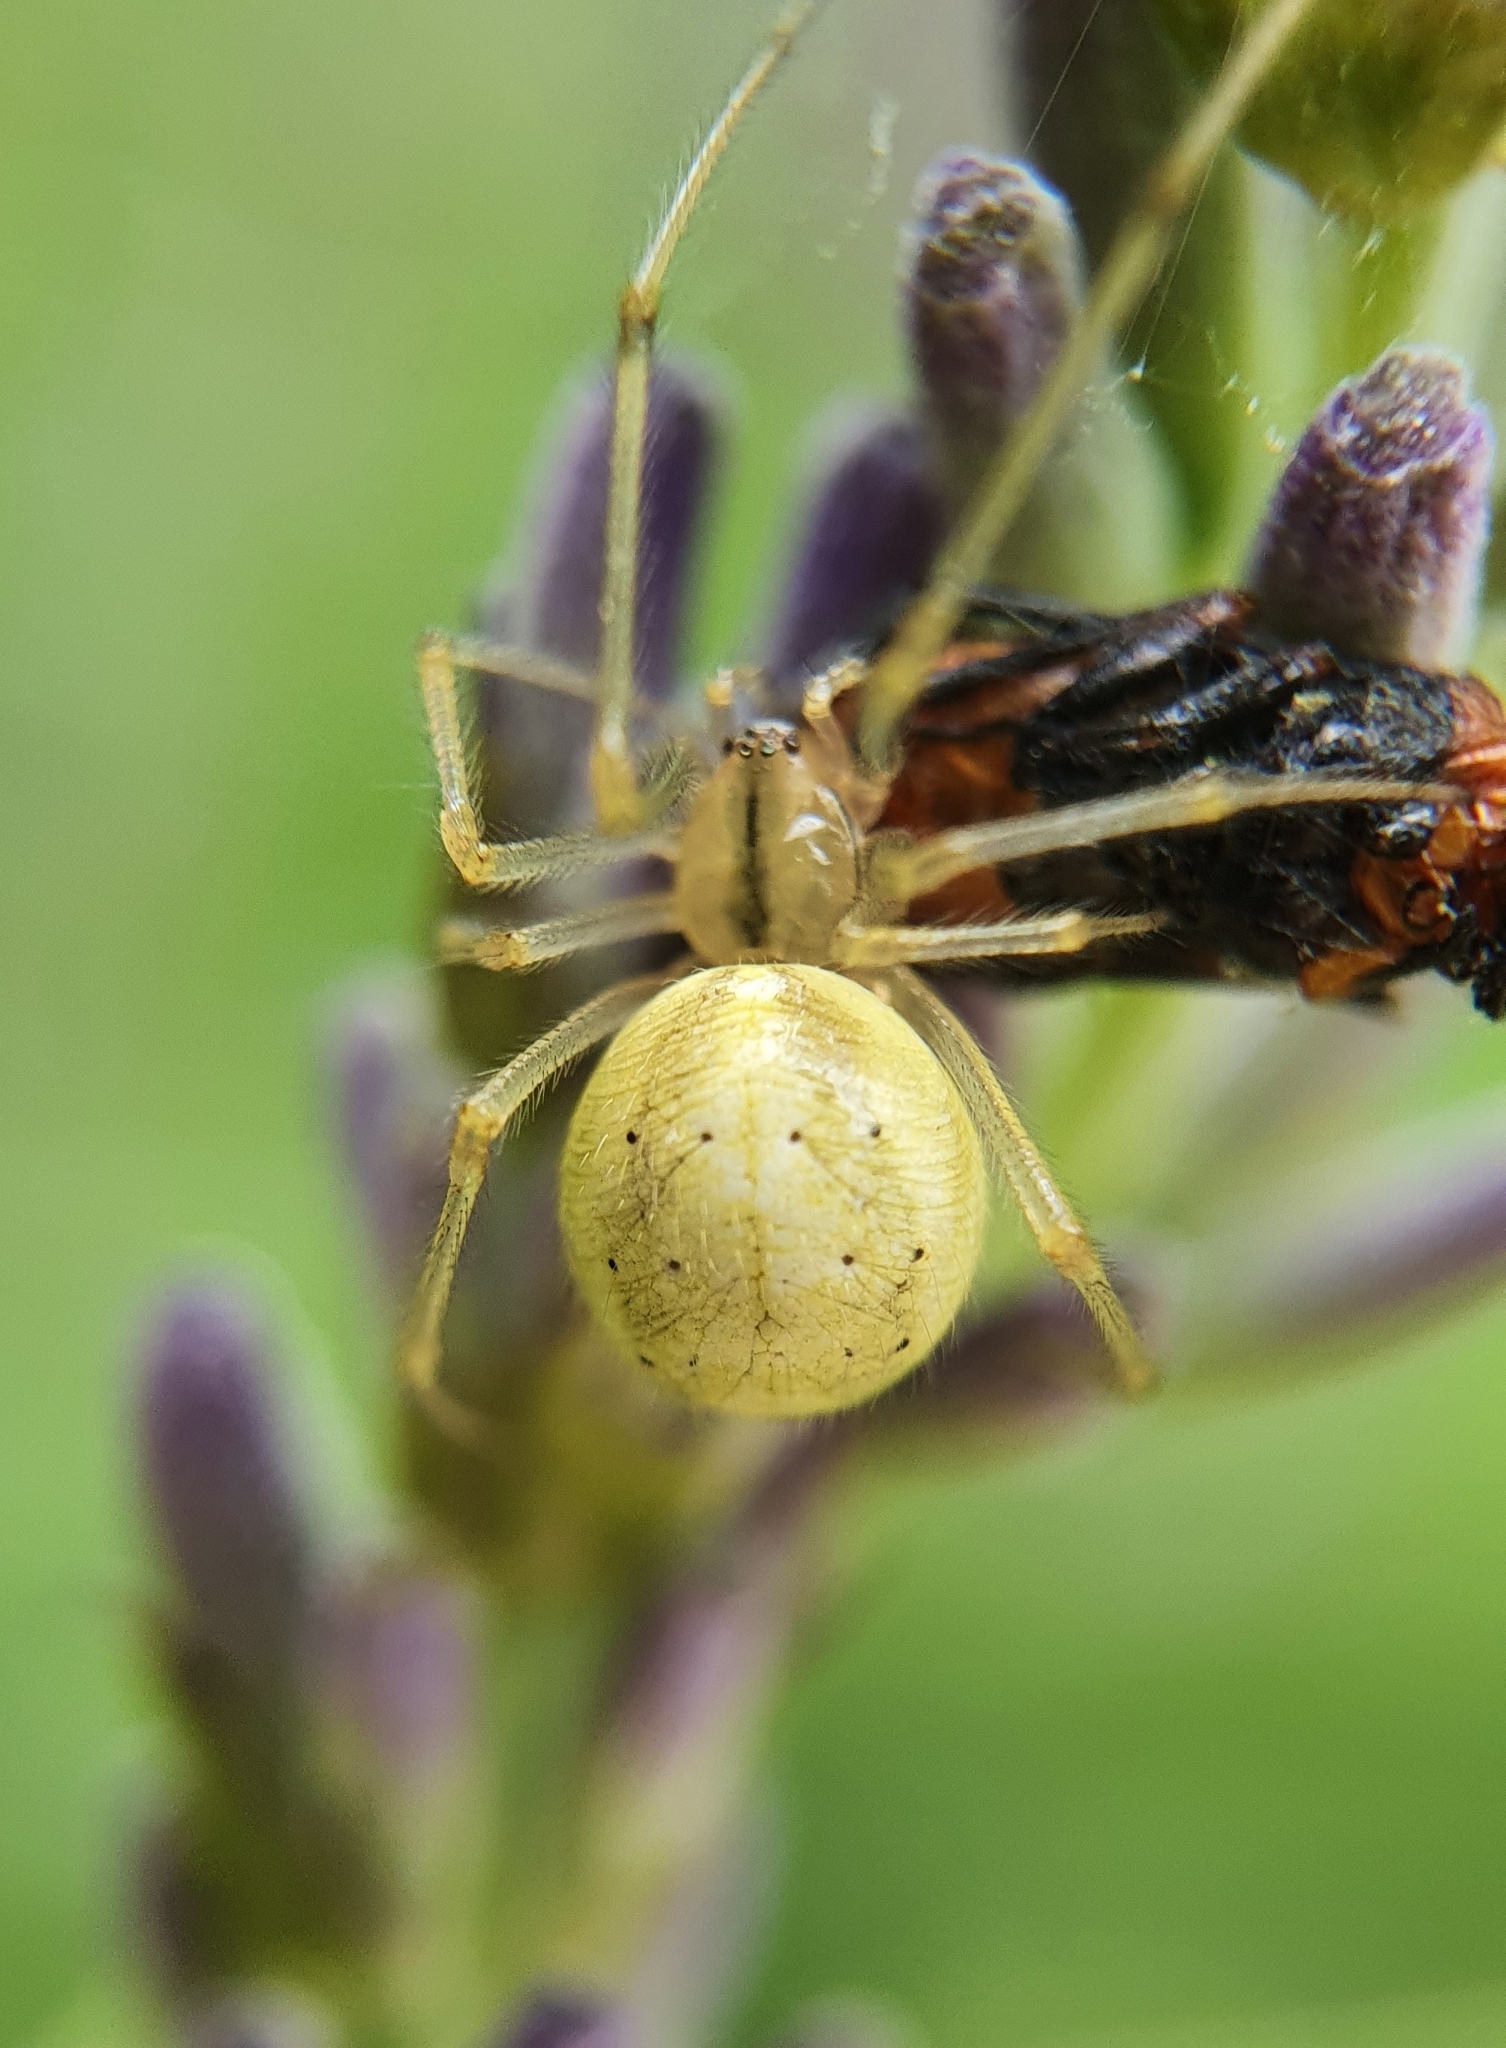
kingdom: Animalia
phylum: Arthropoda
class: Arachnida
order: Araneae
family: Theridiidae
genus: Enoplognatha
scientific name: Enoplognatha ovata
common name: Common candy-striped spider
